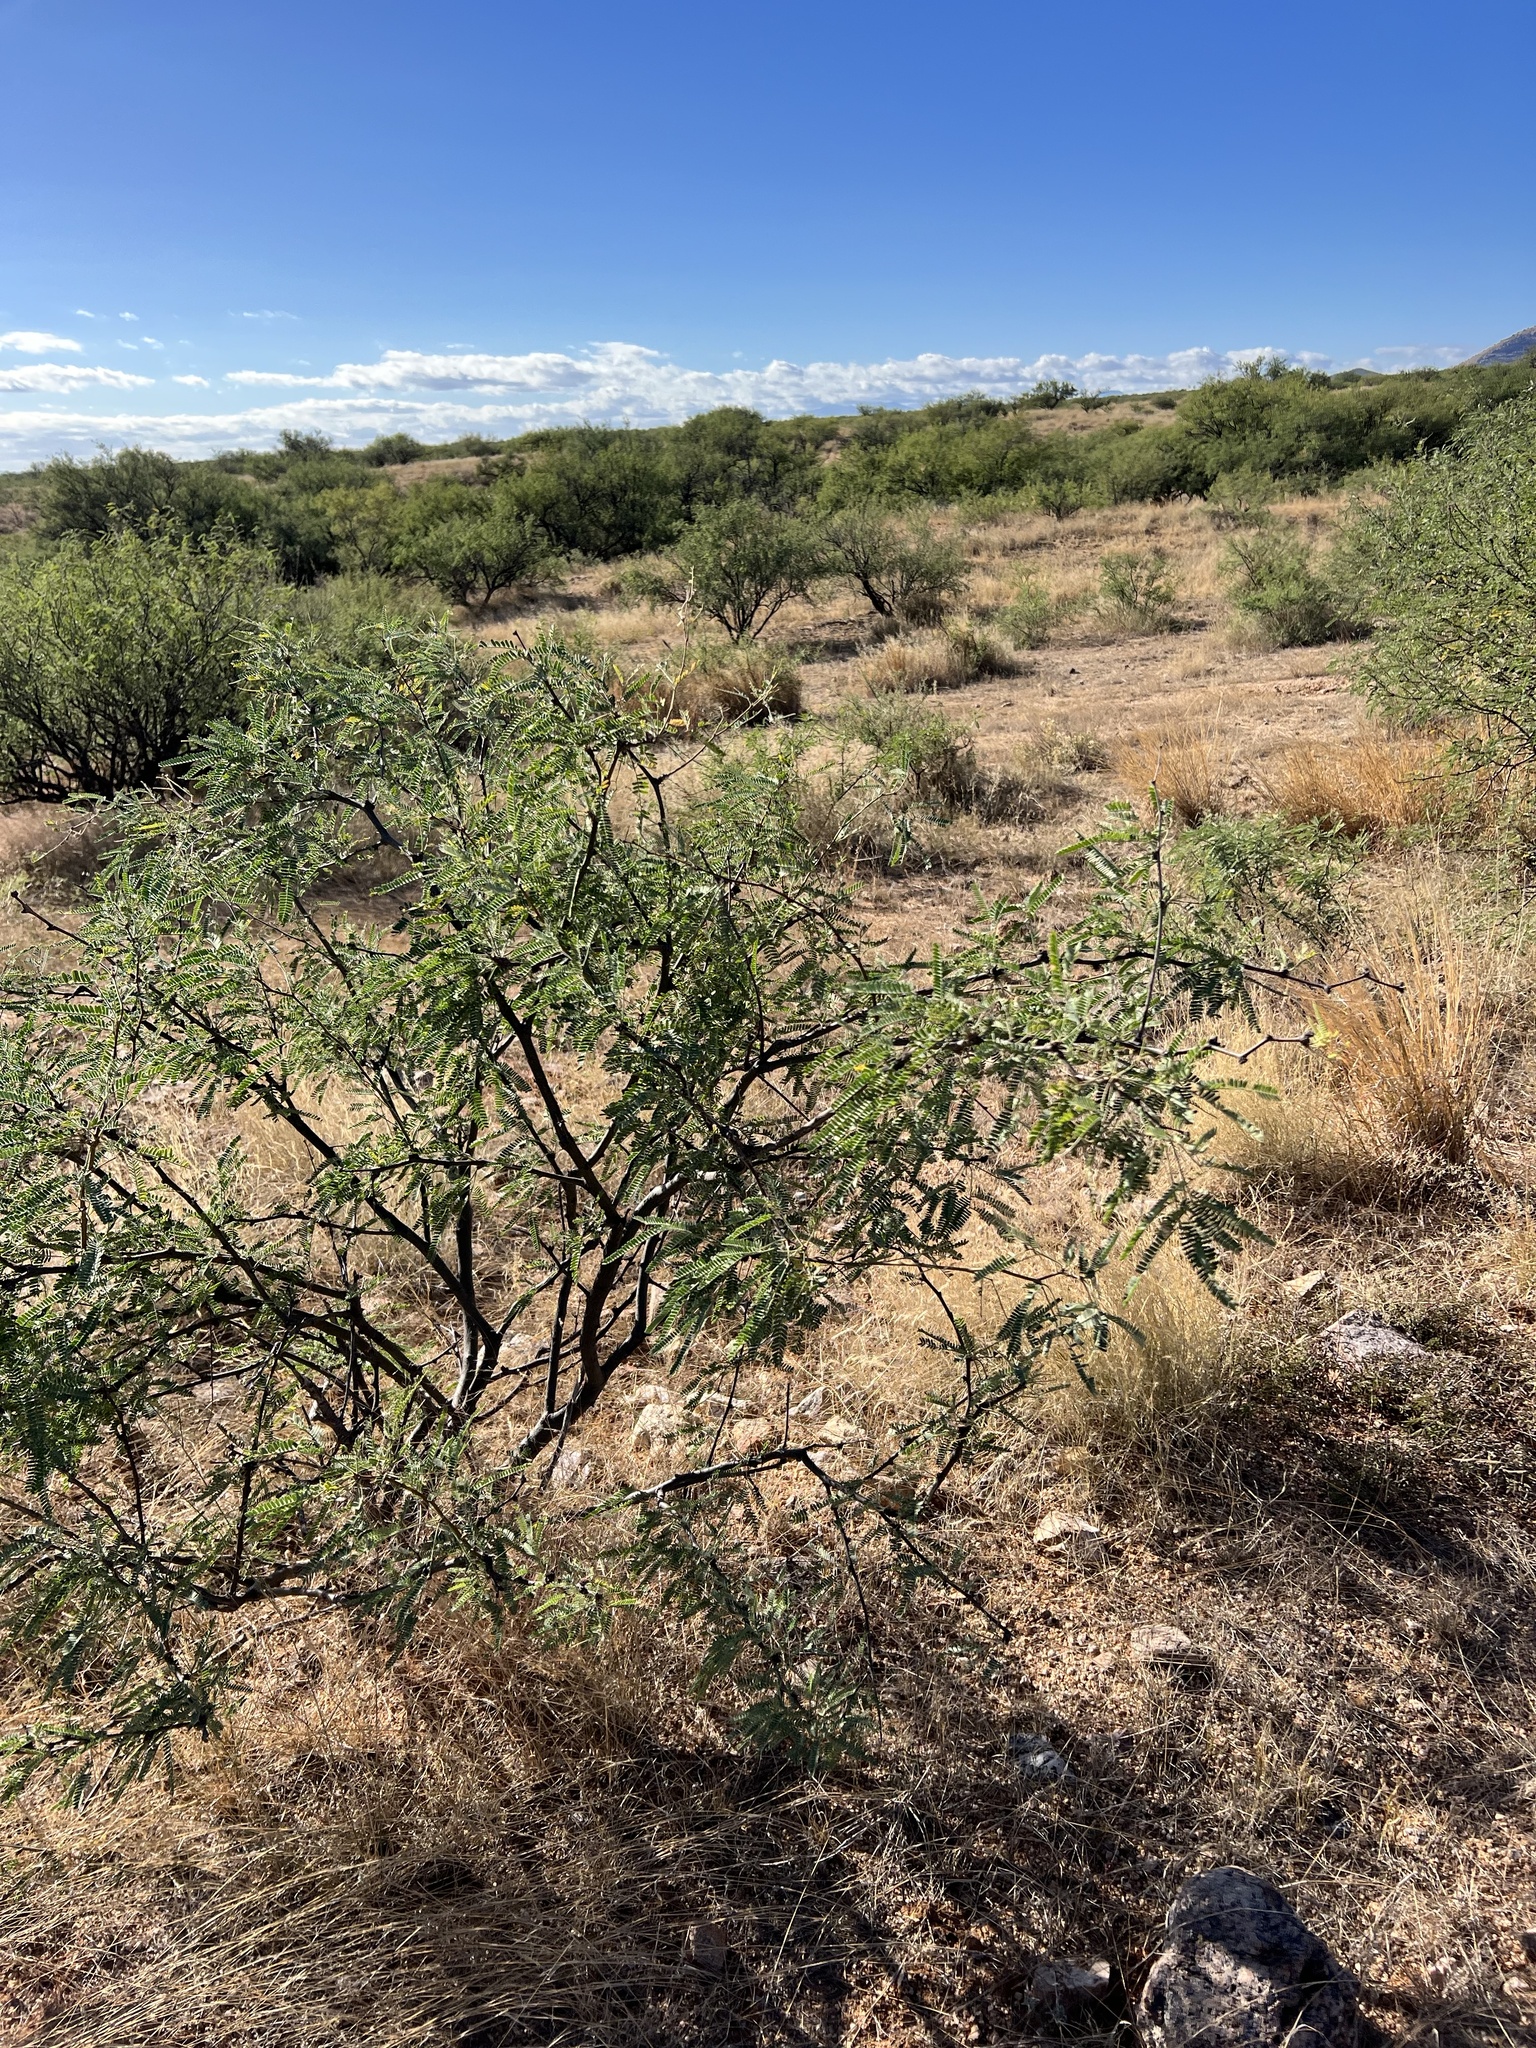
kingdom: Plantae
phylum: Tracheophyta
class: Magnoliopsida
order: Fabales
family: Fabaceae
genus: Prosopis
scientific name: Prosopis velutina
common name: Velvet mesquite
